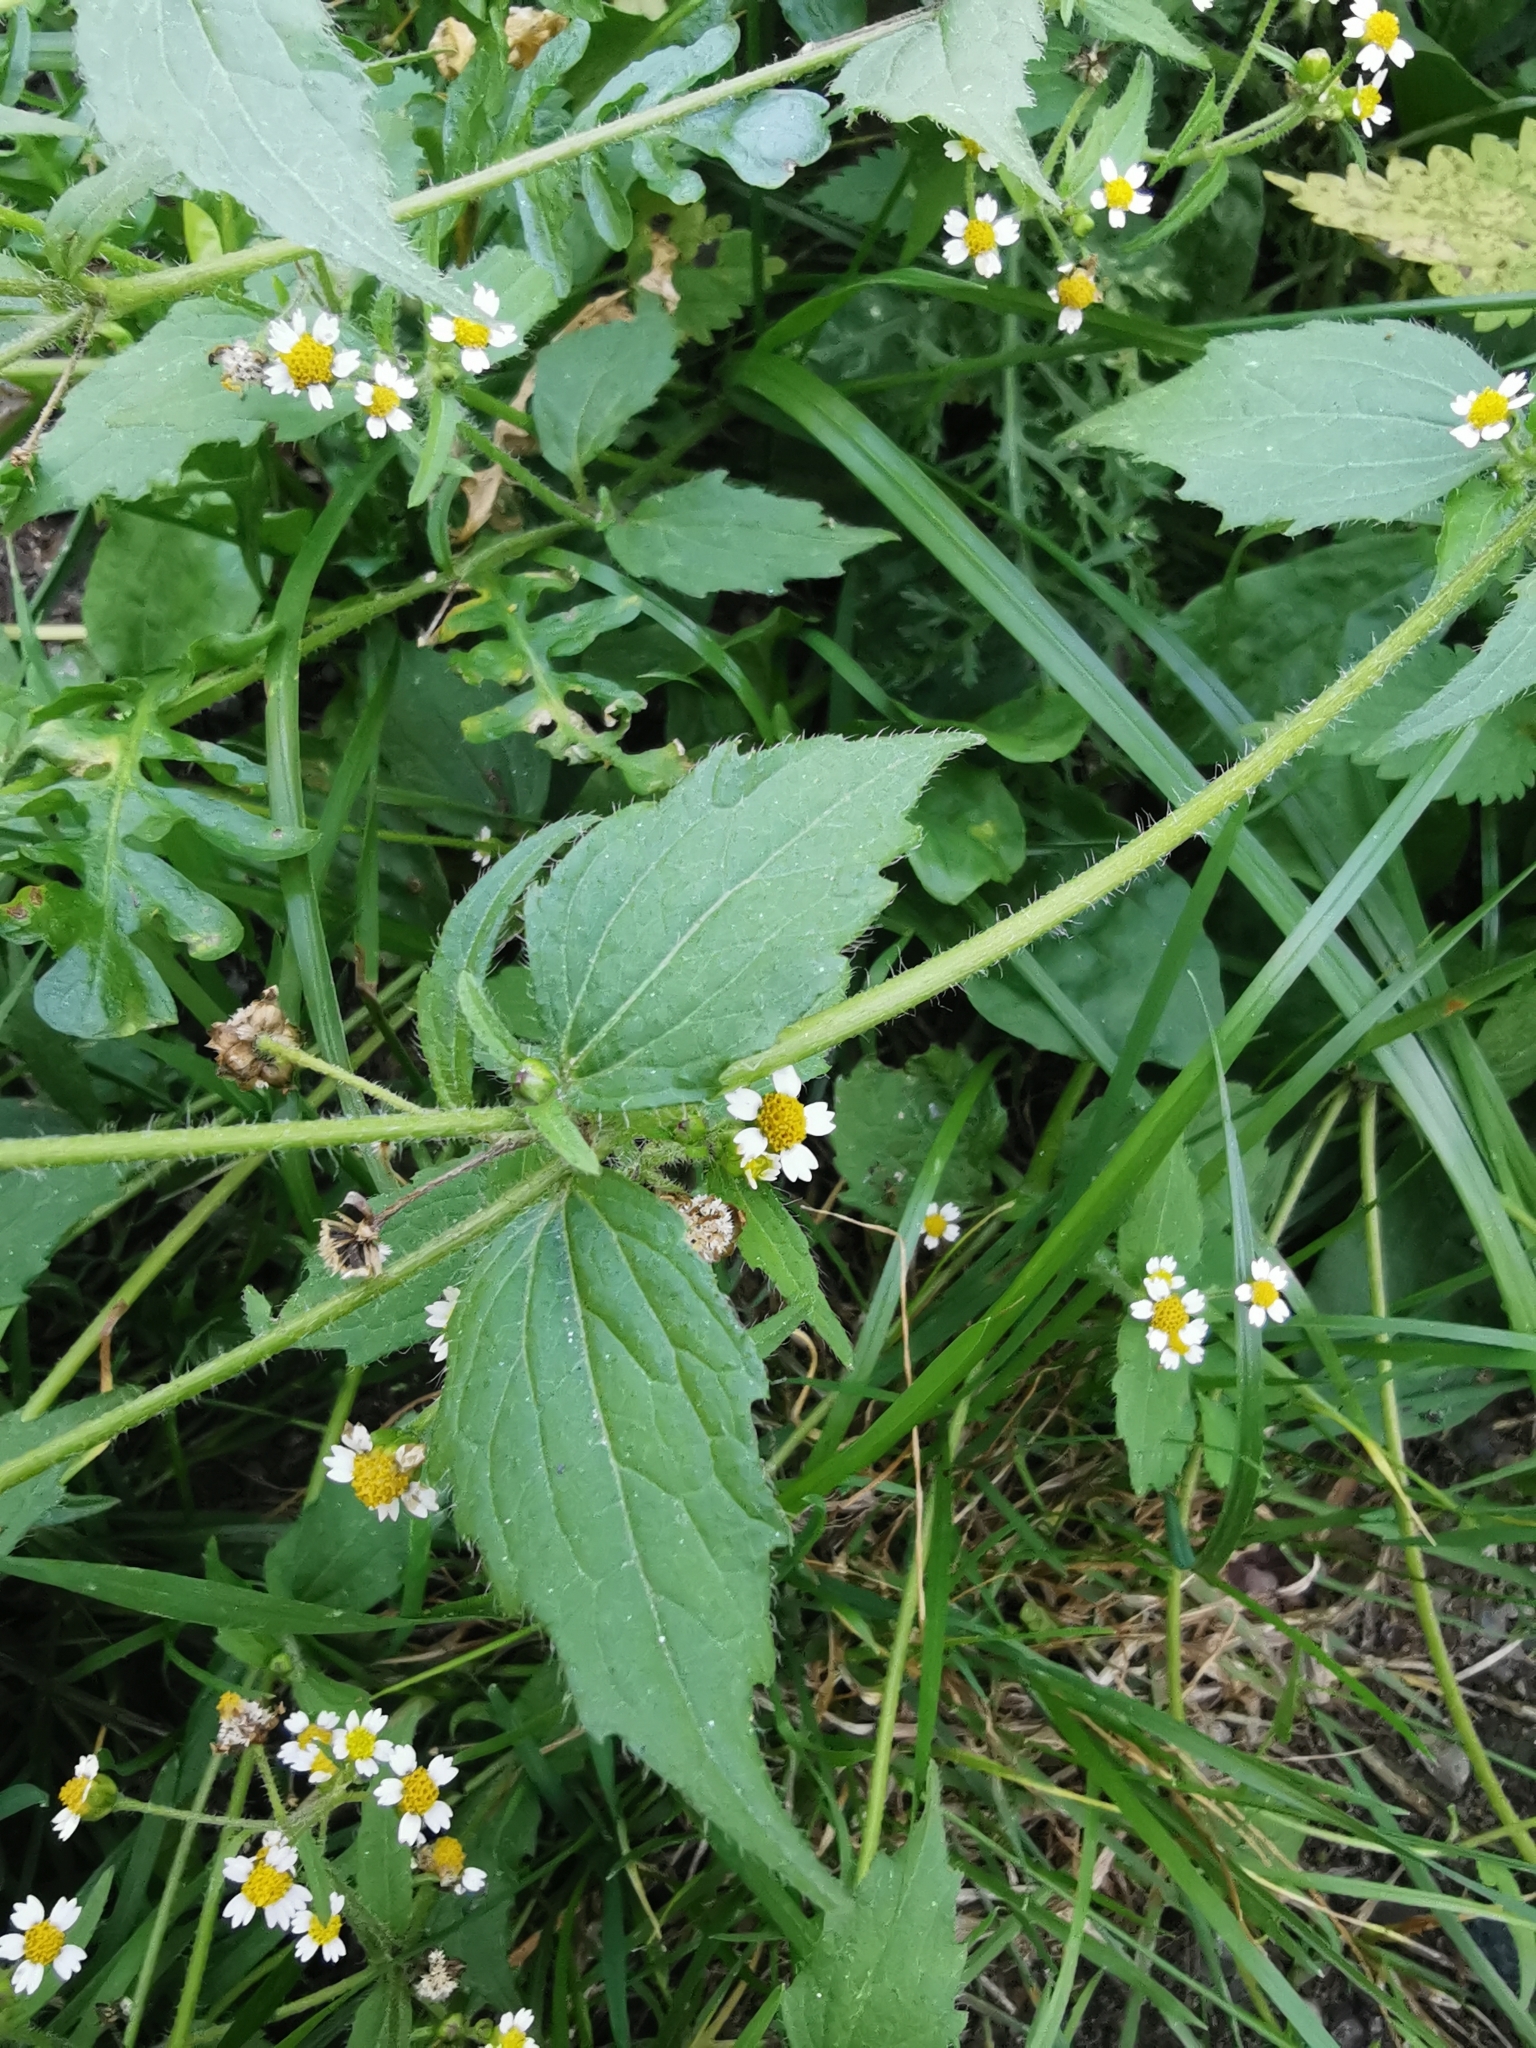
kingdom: Plantae
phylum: Tracheophyta
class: Magnoliopsida
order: Asterales
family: Asteraceae
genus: Galinsoga
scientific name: Galinsoga quadriradiata
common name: Shaggy soldier
